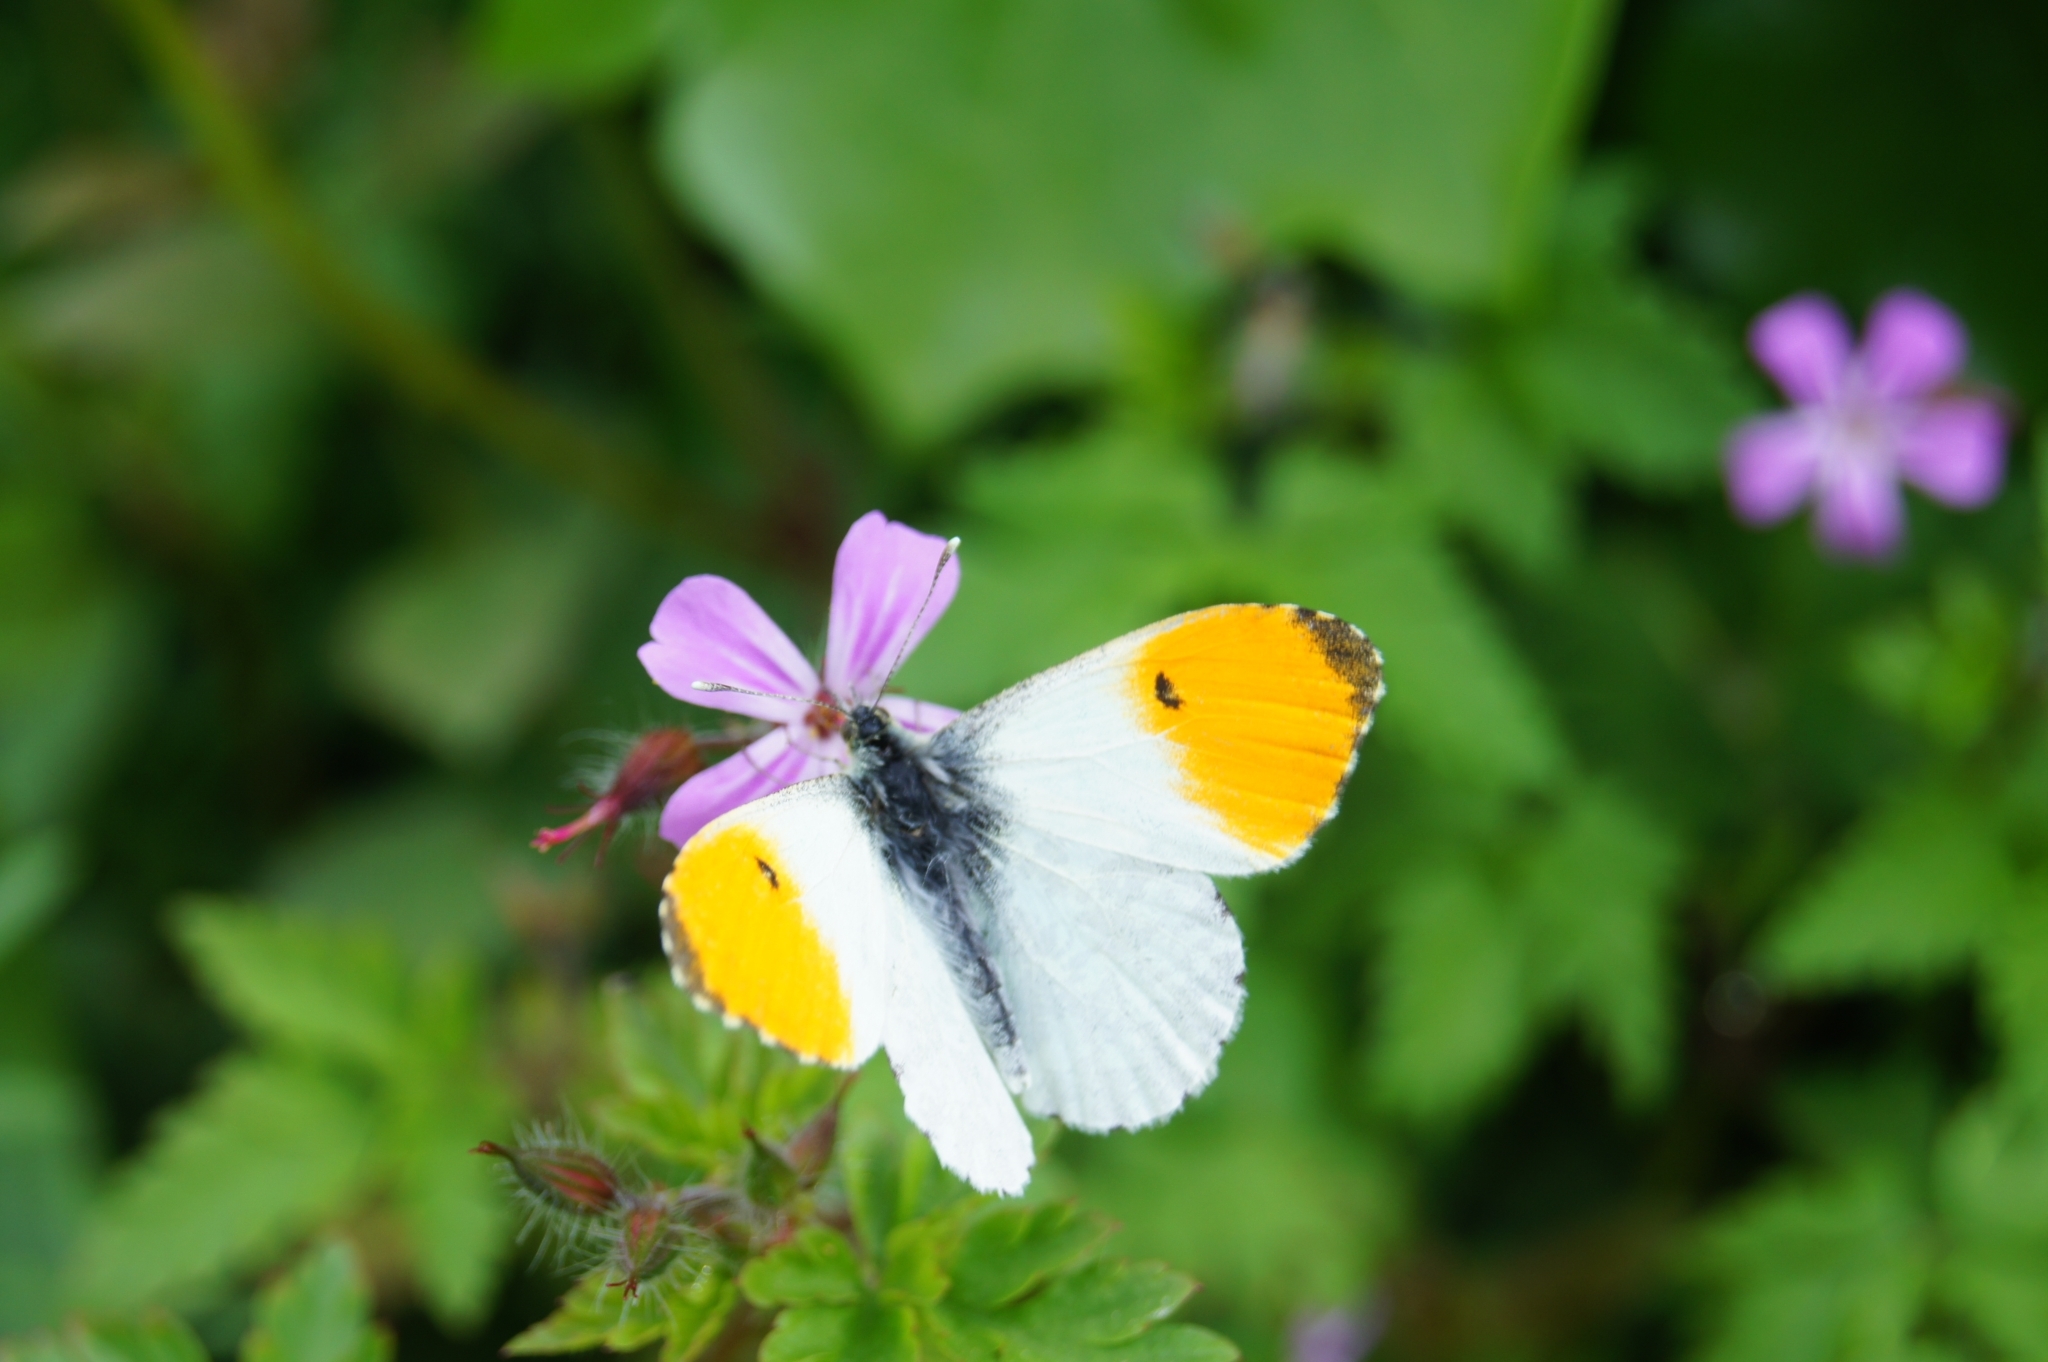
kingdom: Animalia
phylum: Arthropoda
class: Insecta
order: Lepidoptera
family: Pieridae
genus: Anthocharis
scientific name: Anthocharis cardamines
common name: Orange-tip
